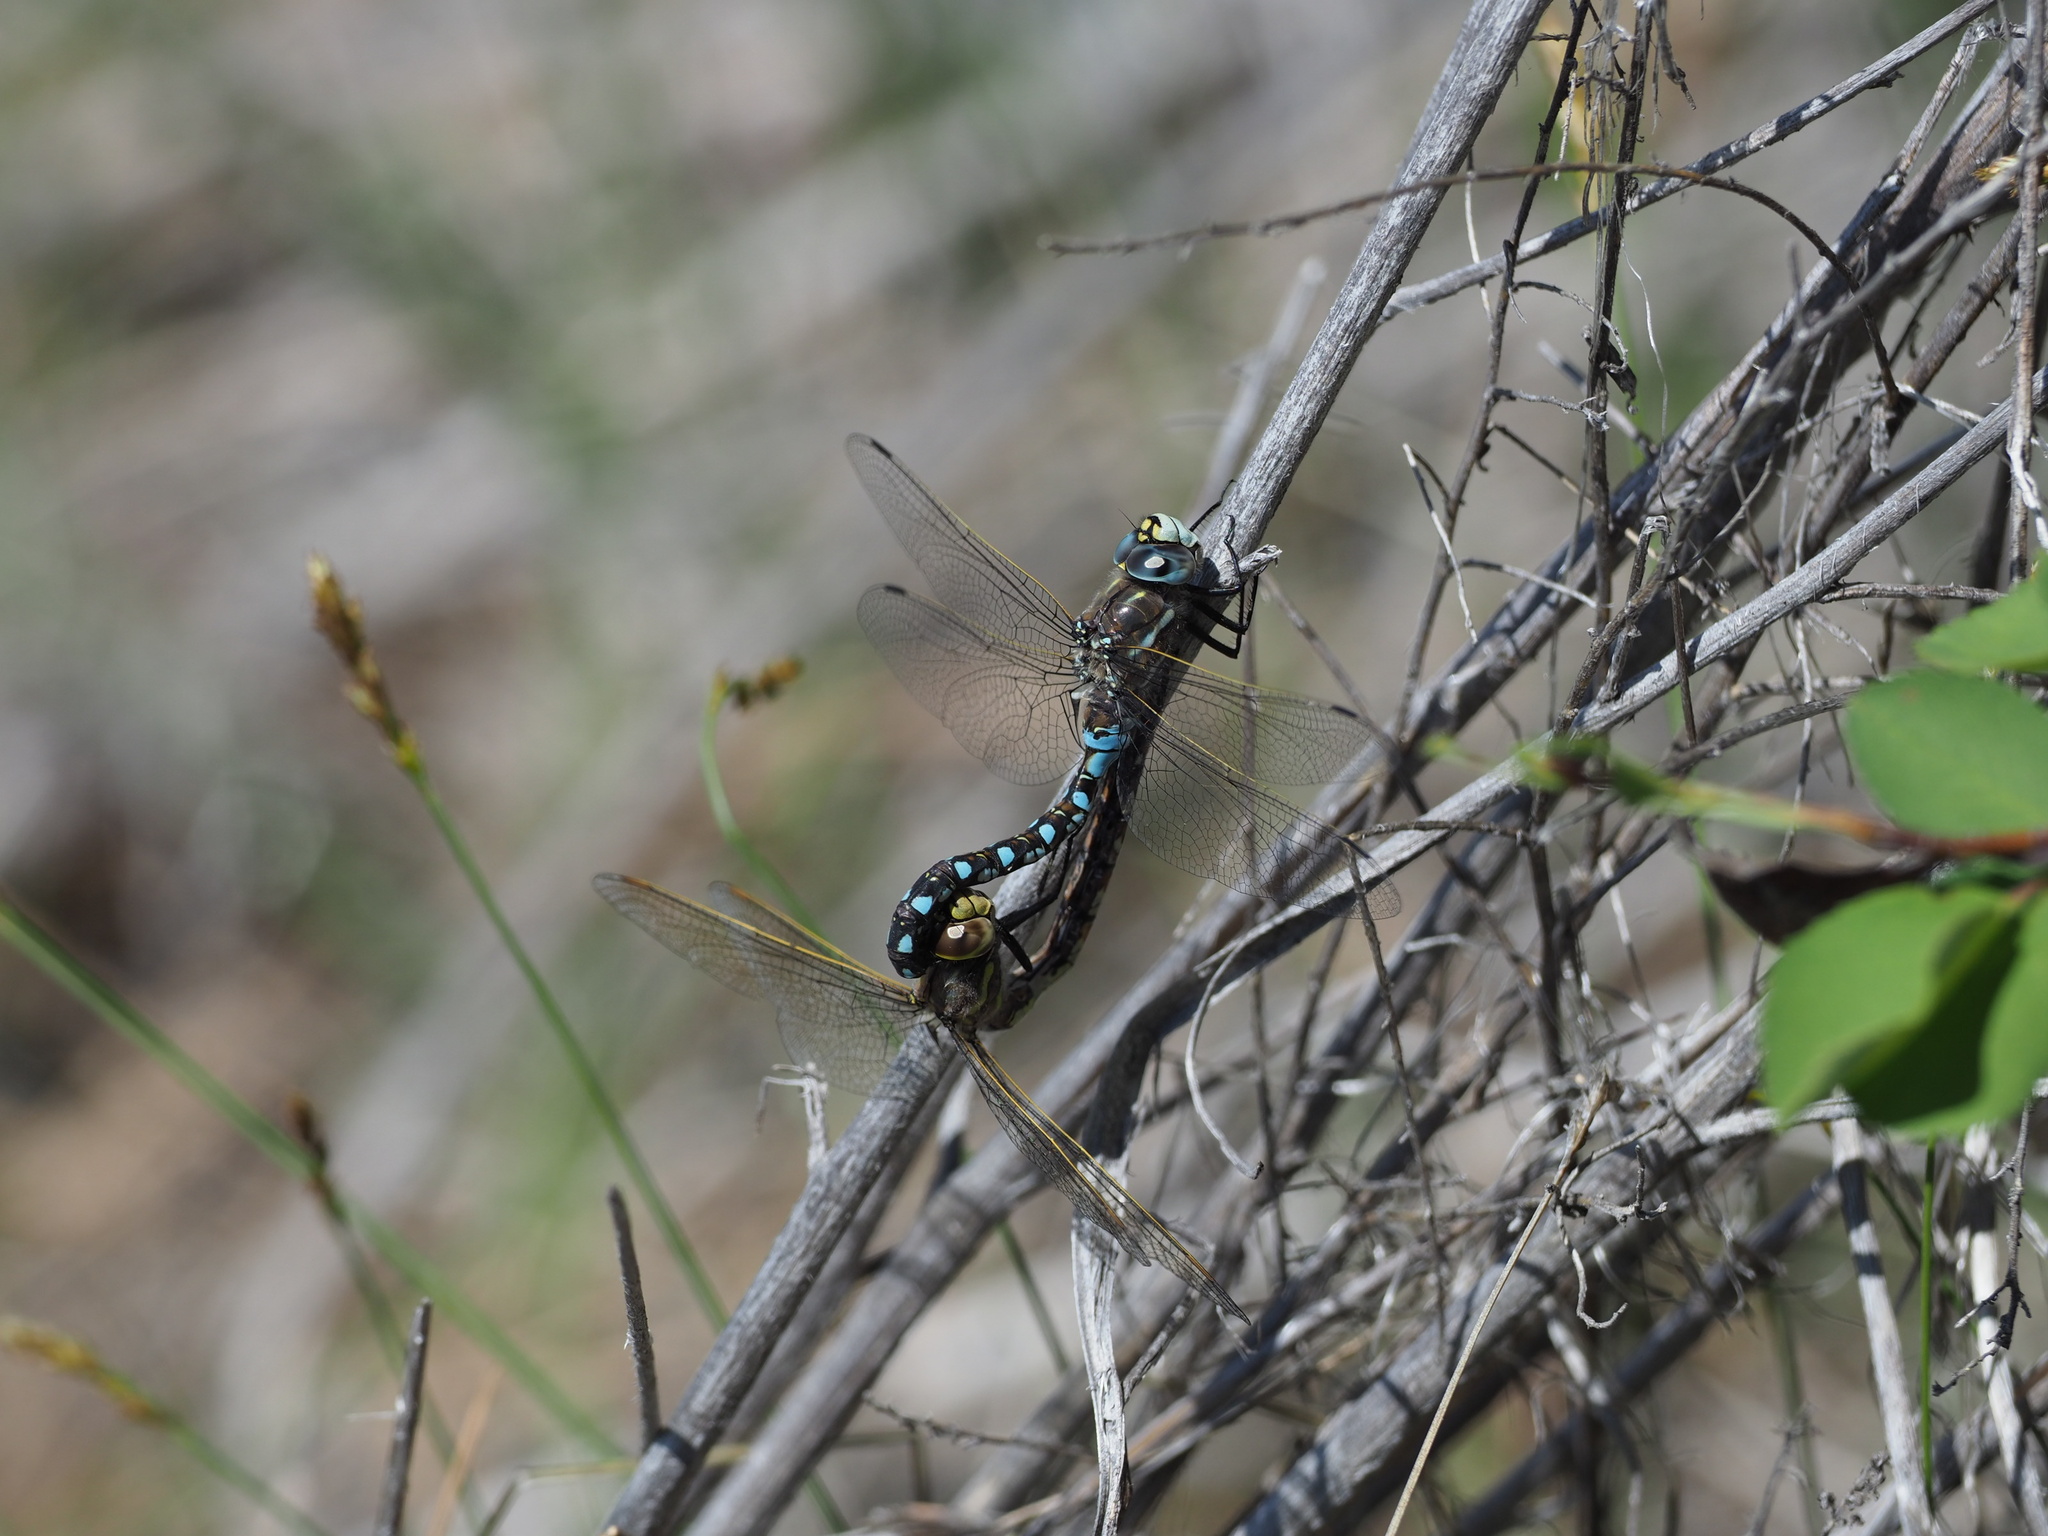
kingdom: Animalia
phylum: Arthropoda
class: Insecta
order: Odonata
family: Aeshnidae
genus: Rhionaeschna
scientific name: Rhionaeschna californica
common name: California darner
